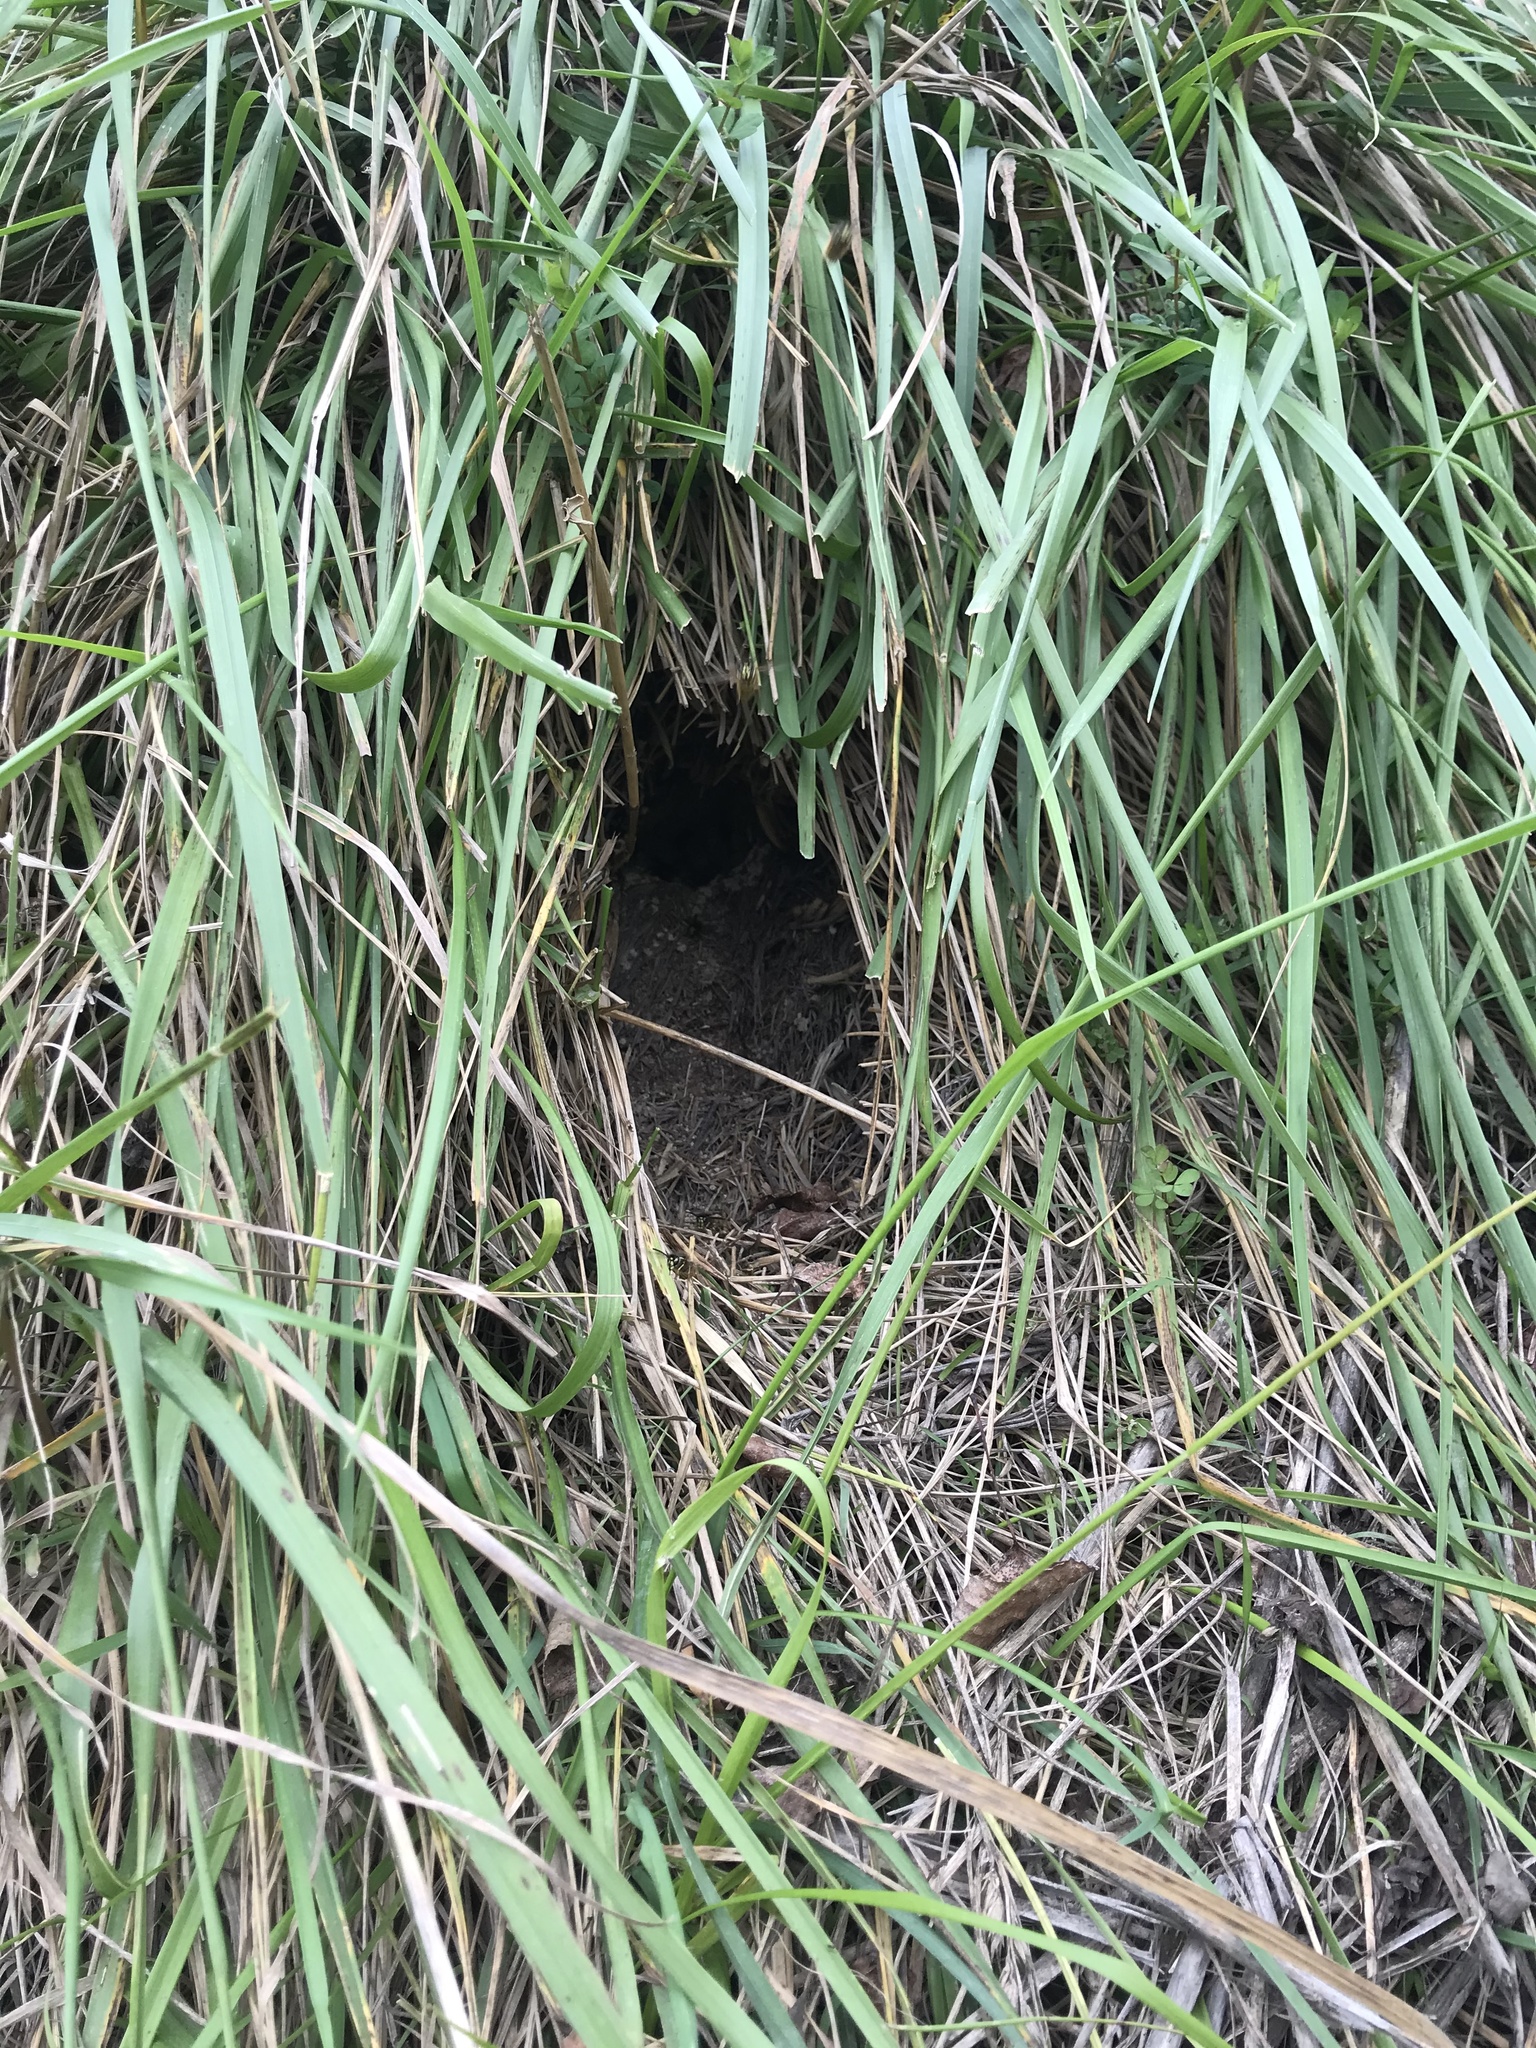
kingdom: Animalia
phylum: Arthropoda
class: Insecta
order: Hymenoptera
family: Vespidae
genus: Vespula
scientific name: Vespula
